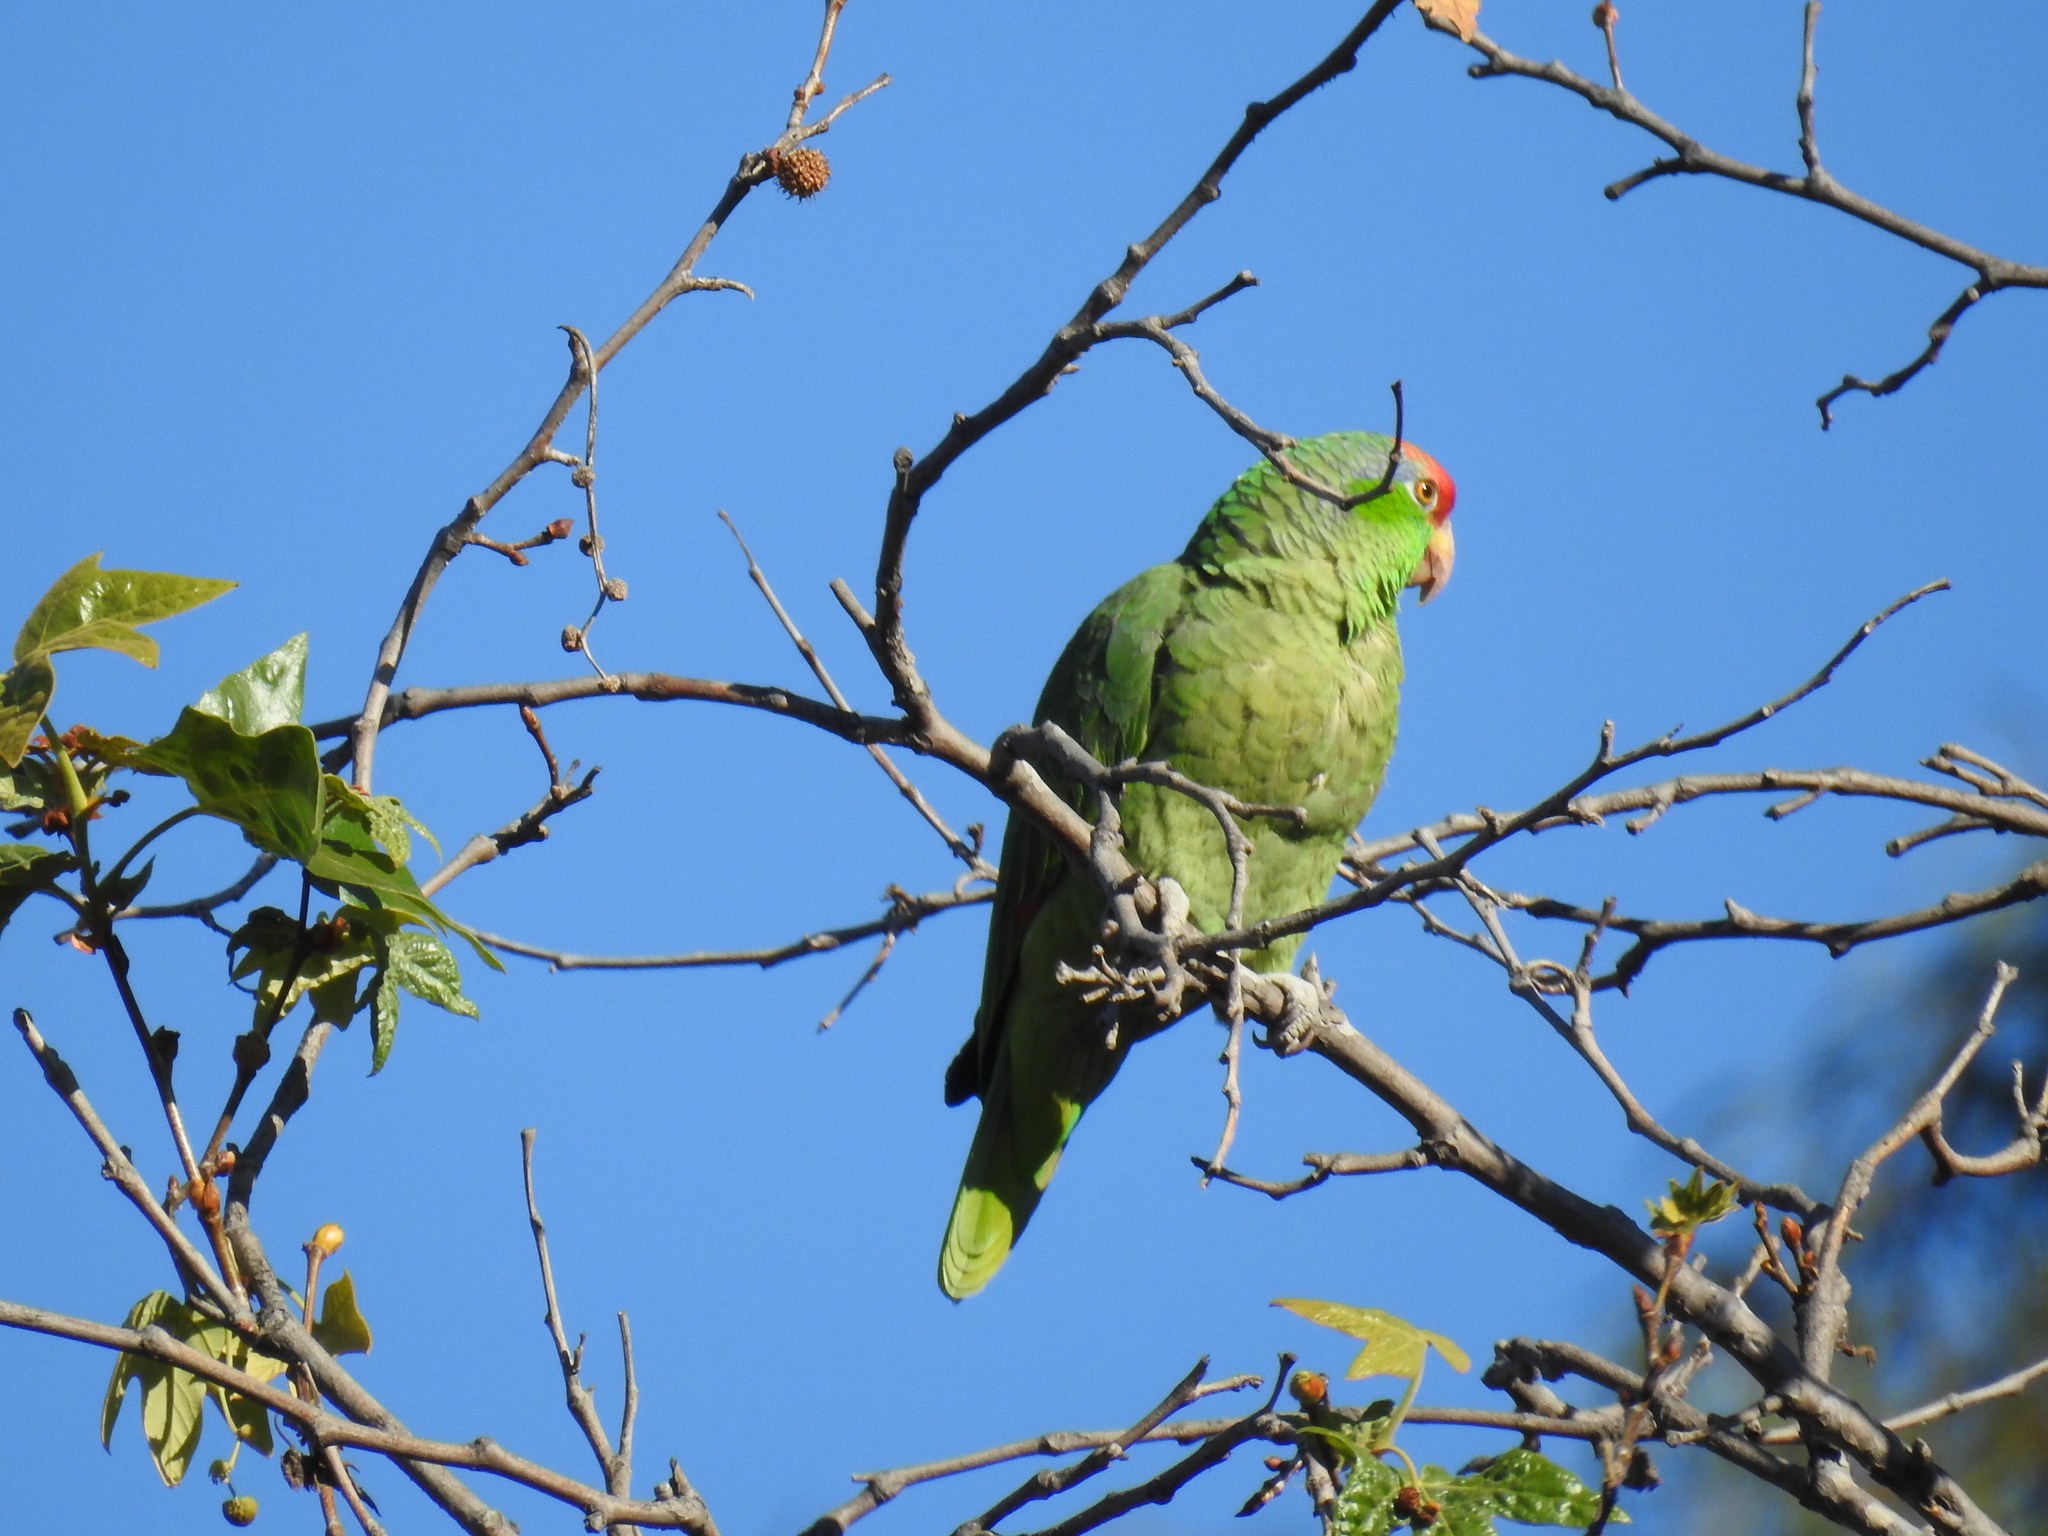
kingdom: Animalia
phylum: Chordata
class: Aves
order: Psittaciformes
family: Psittacidae
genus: Amazona
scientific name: Amazona viridigenalis
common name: Red-crowned amazon
